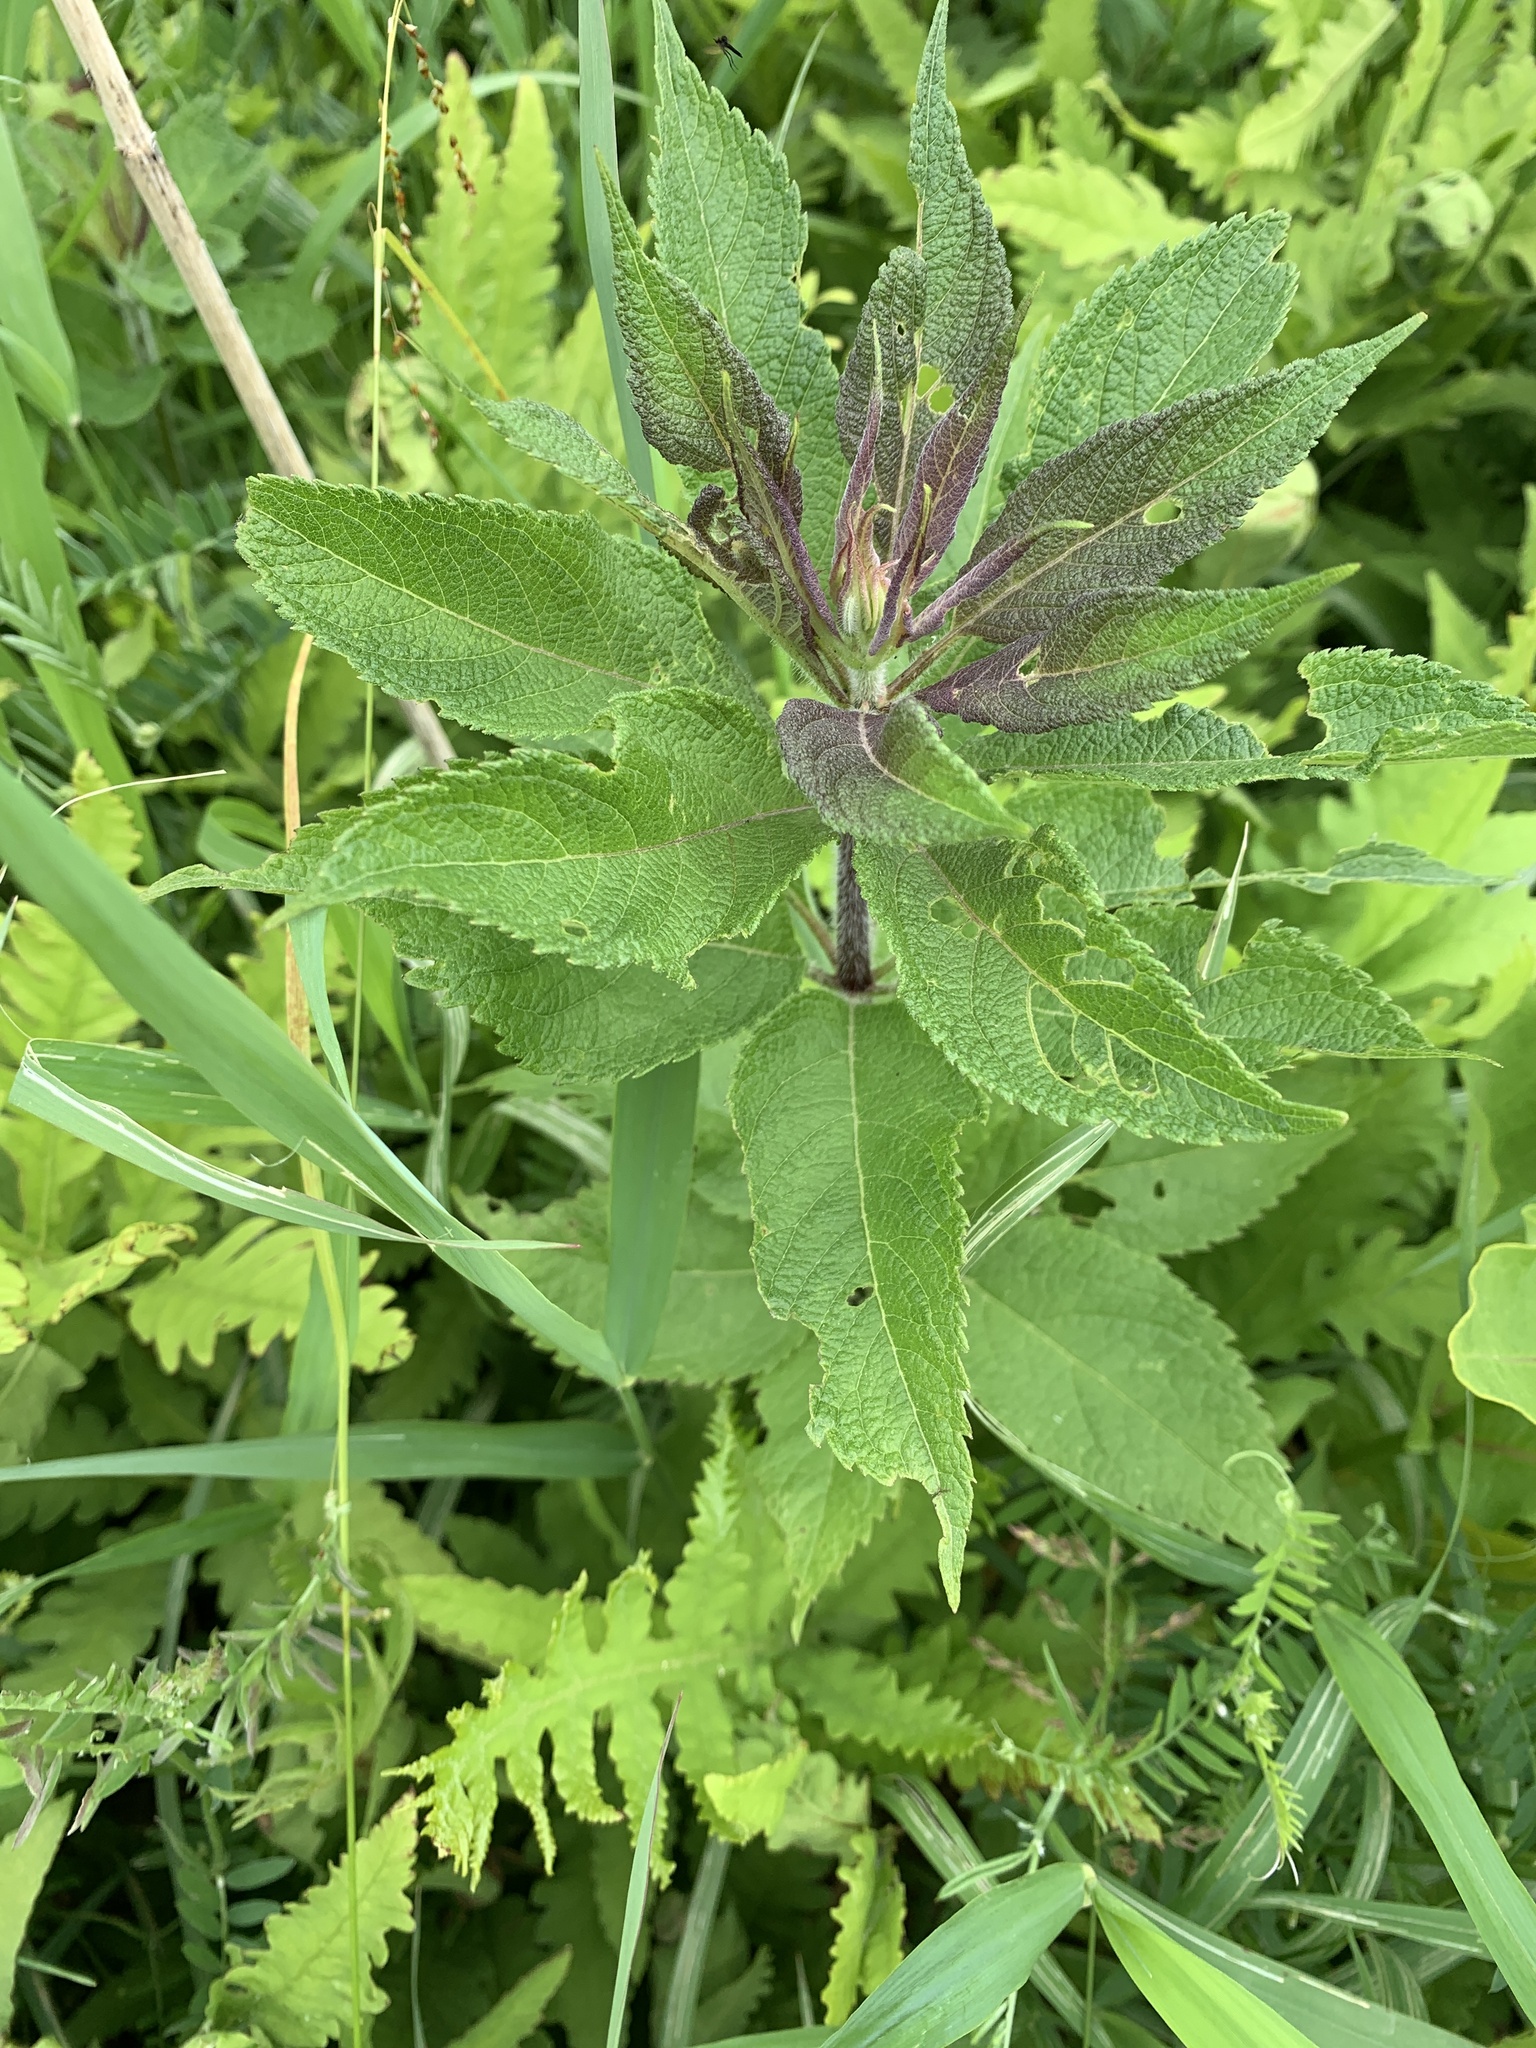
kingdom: Plantae
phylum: Tracheophyta
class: Magnoliopsida
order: Asterales
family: Asteraceae
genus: Eutrochium
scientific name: Eutrochium maculatum
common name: Spotted joe pye weed
